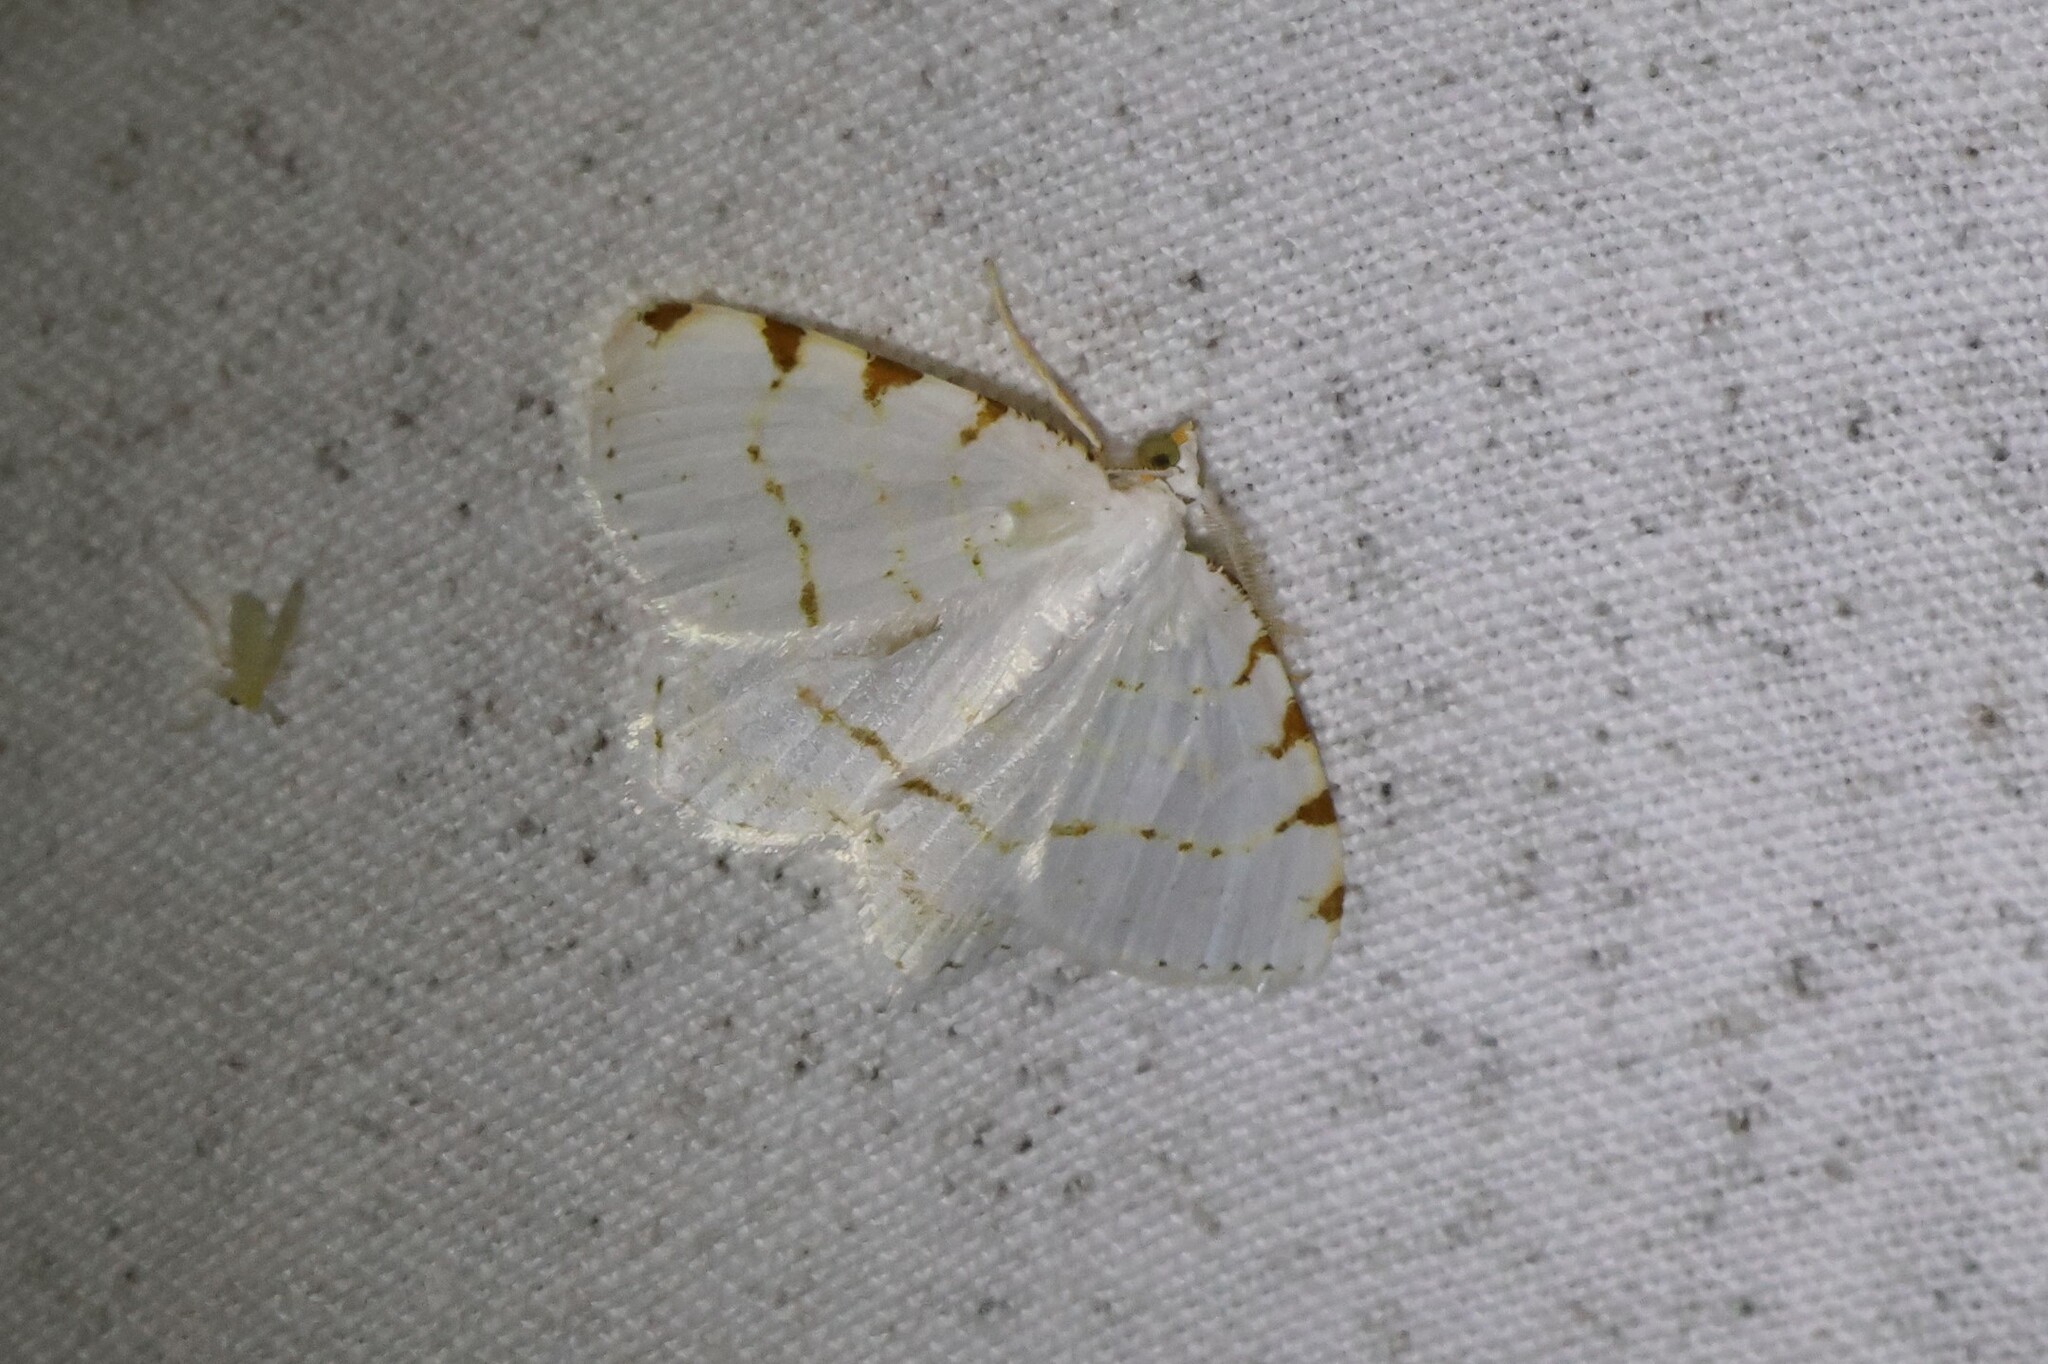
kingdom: Animalia
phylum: Arthropoda
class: Insecta
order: Lepidoptera
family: Geometridae
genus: Macaria
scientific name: Macaria pustularia
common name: Lesser maple spanworm moth
